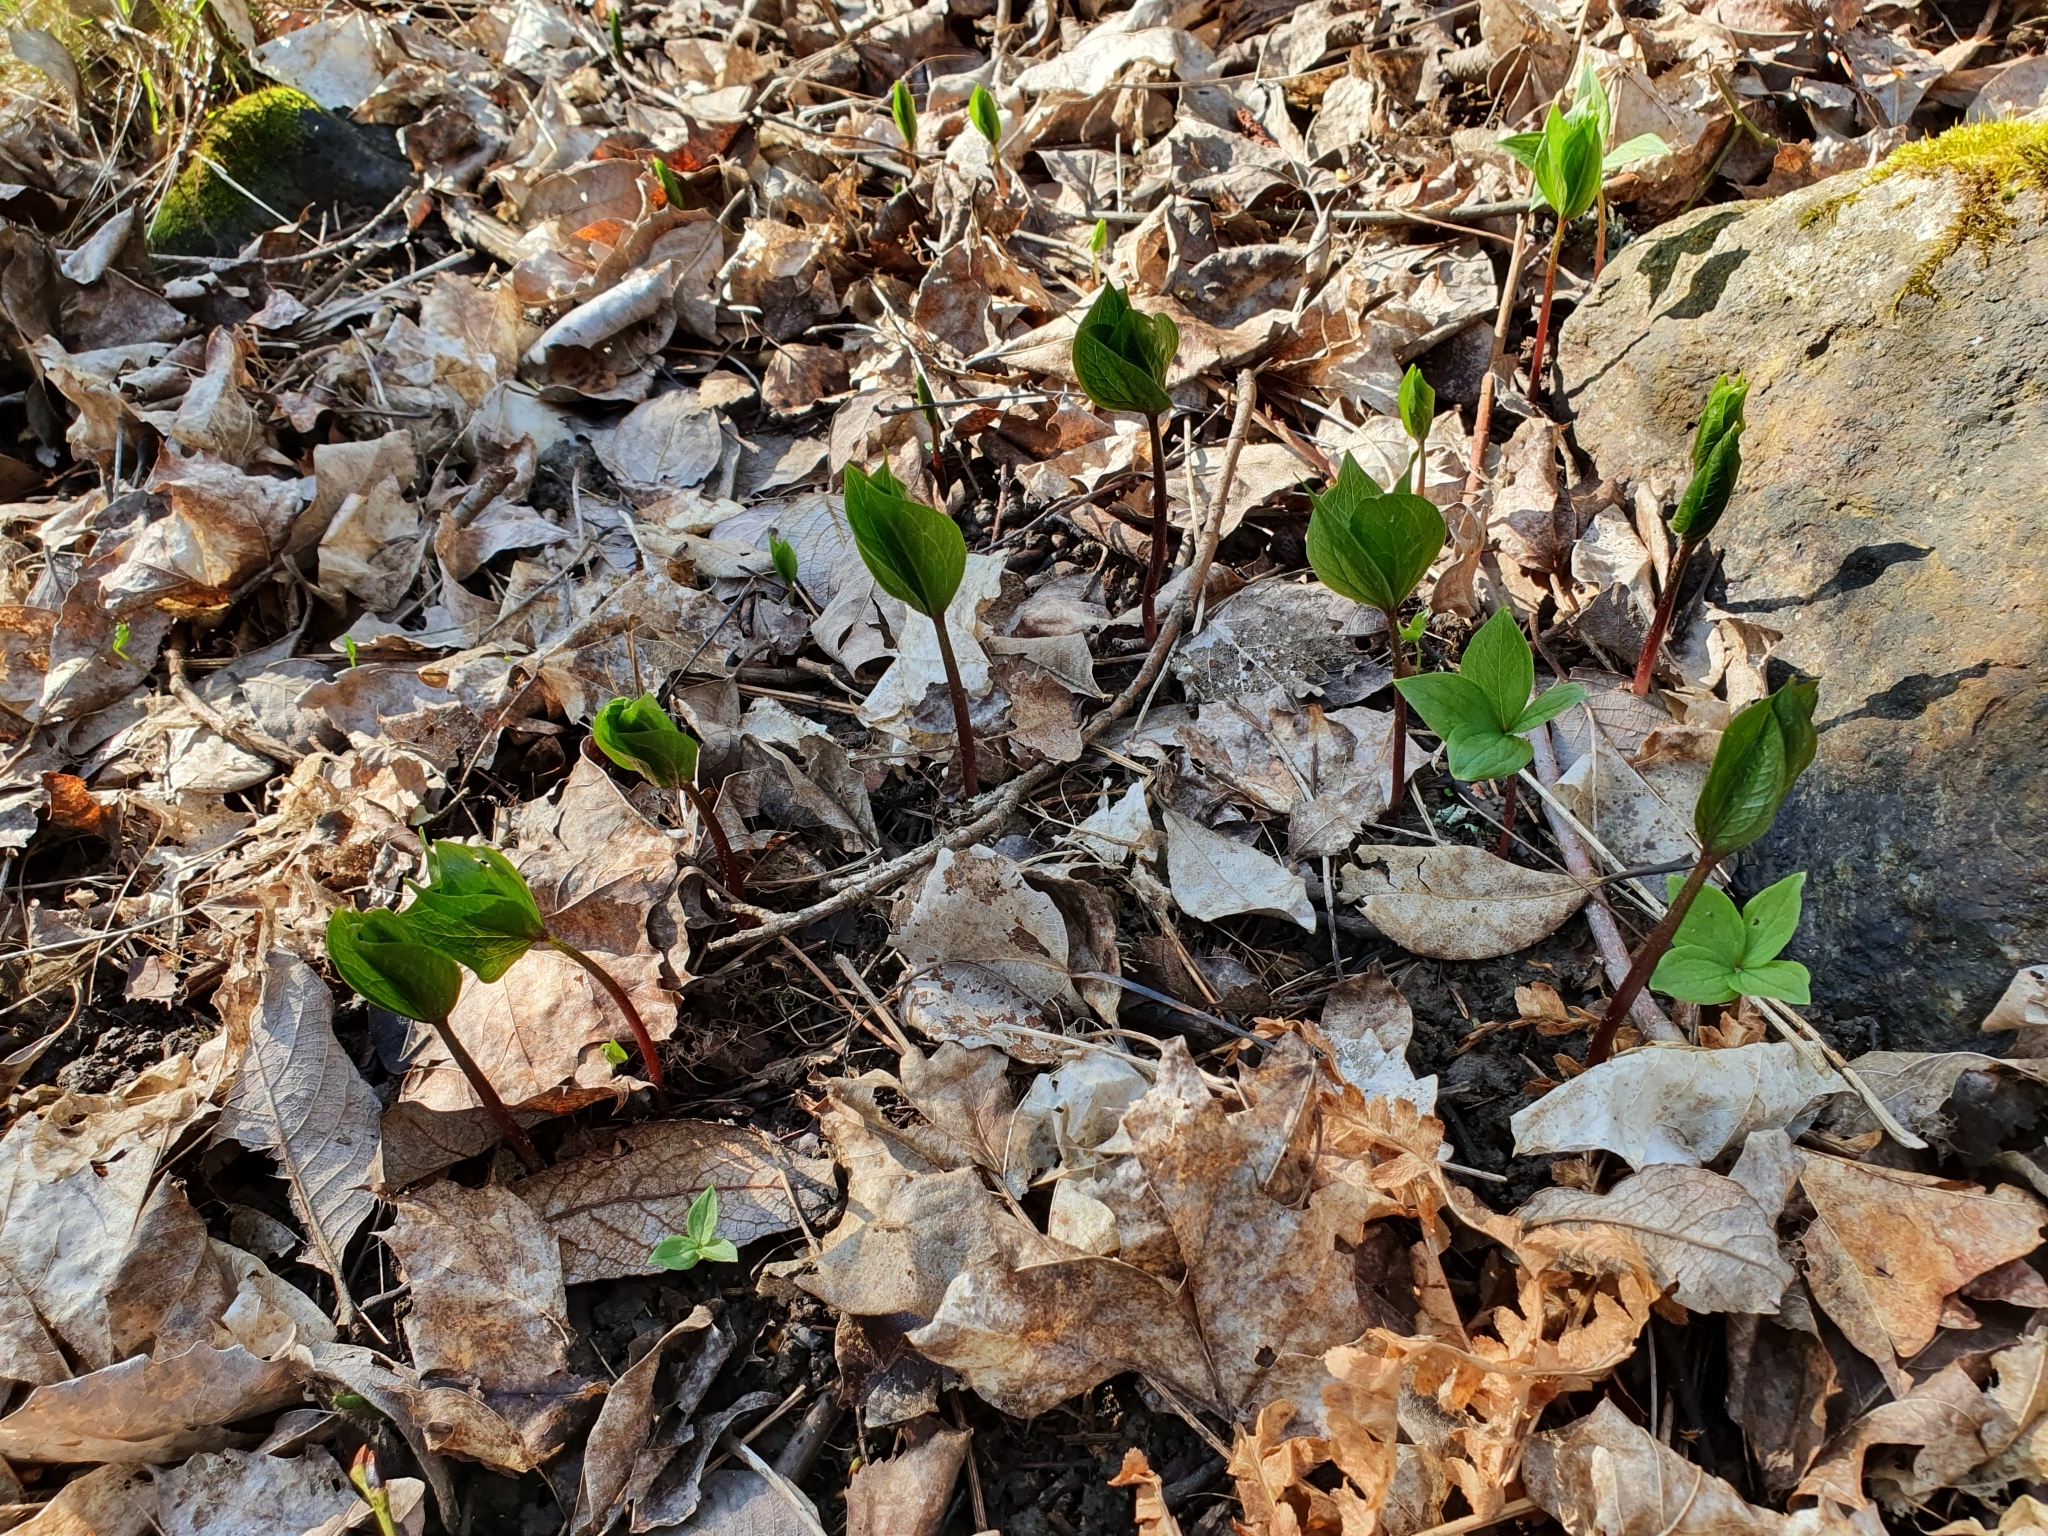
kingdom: Plantae
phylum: Tracheophyta
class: Liliopsida
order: Liliales
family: Melanthiaceae
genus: Paris
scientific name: Paris quadrifolia
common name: Herb-paris
